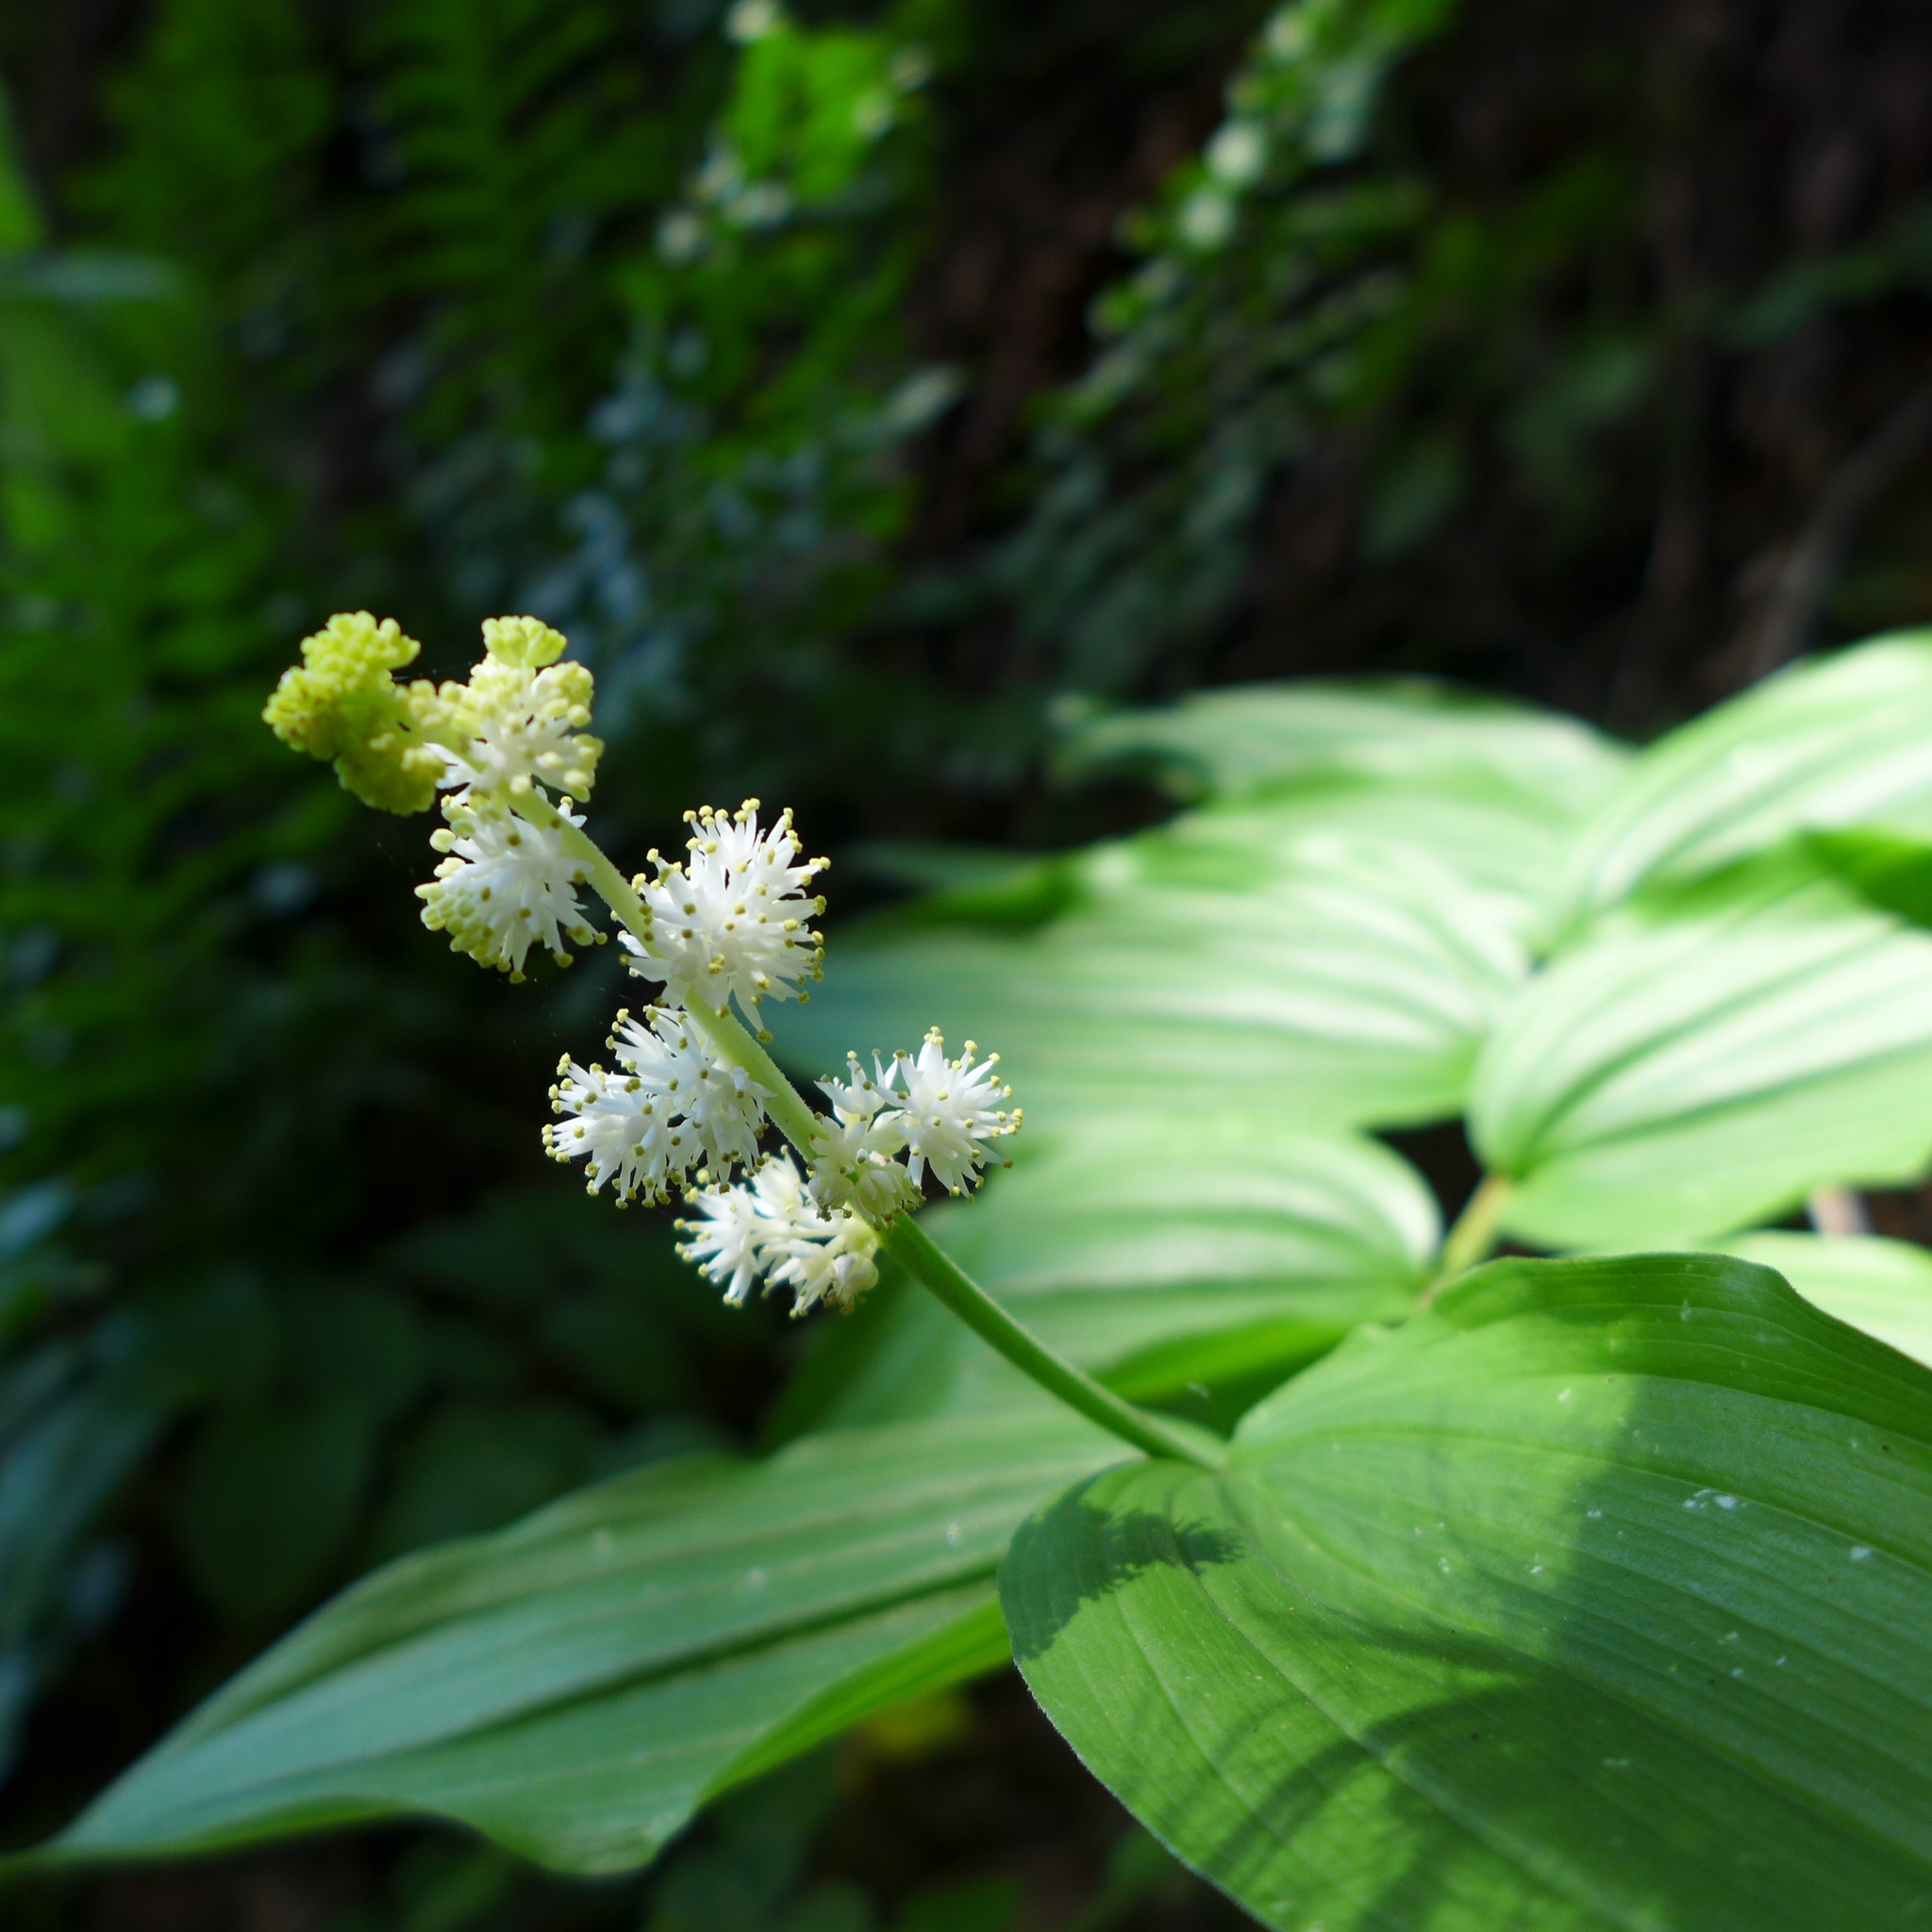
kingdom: Plantae
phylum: Tracheophyta
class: Liliopsida
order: Asparagales
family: Asparagaceae
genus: Maianthemum
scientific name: Maianthemum racemosum
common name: False spikenard
